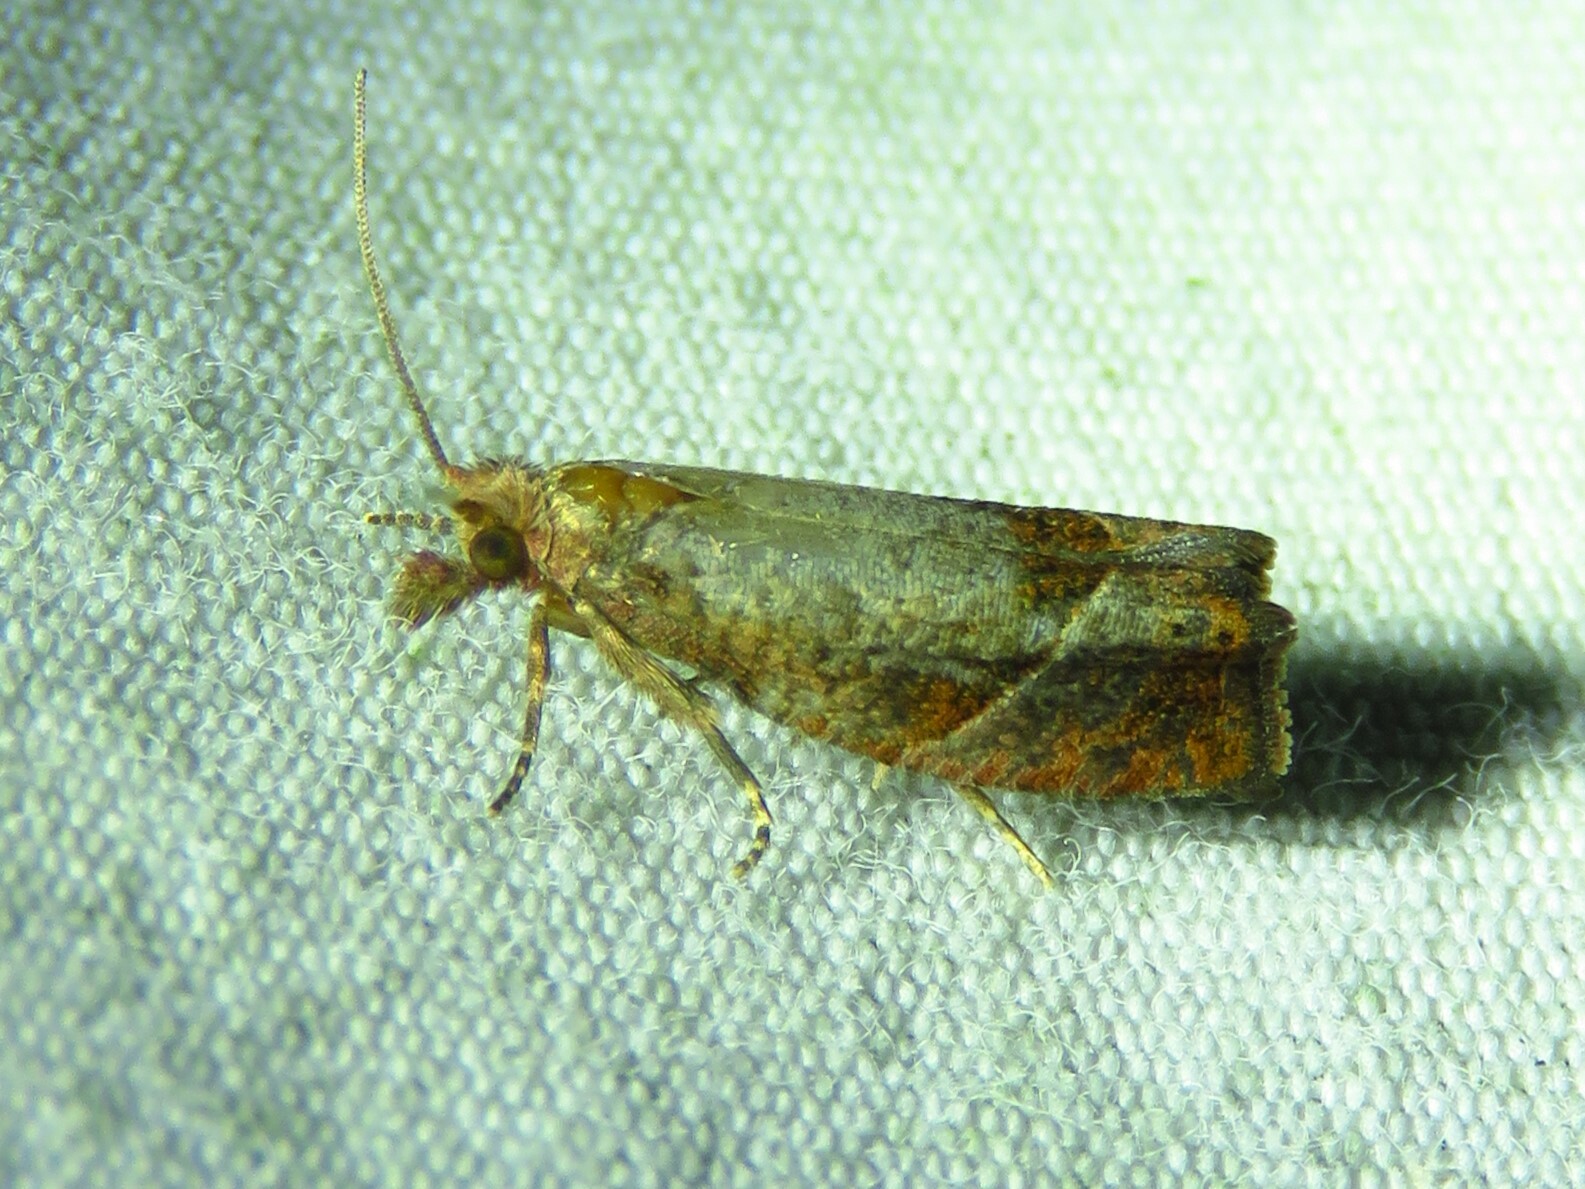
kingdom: Animalia
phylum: Arthropoda
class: Insecta
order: Lepidoptera
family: Tortricidae
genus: Pelochrista
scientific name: Pelochrista derelicta
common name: Derelict pelochrista moth
